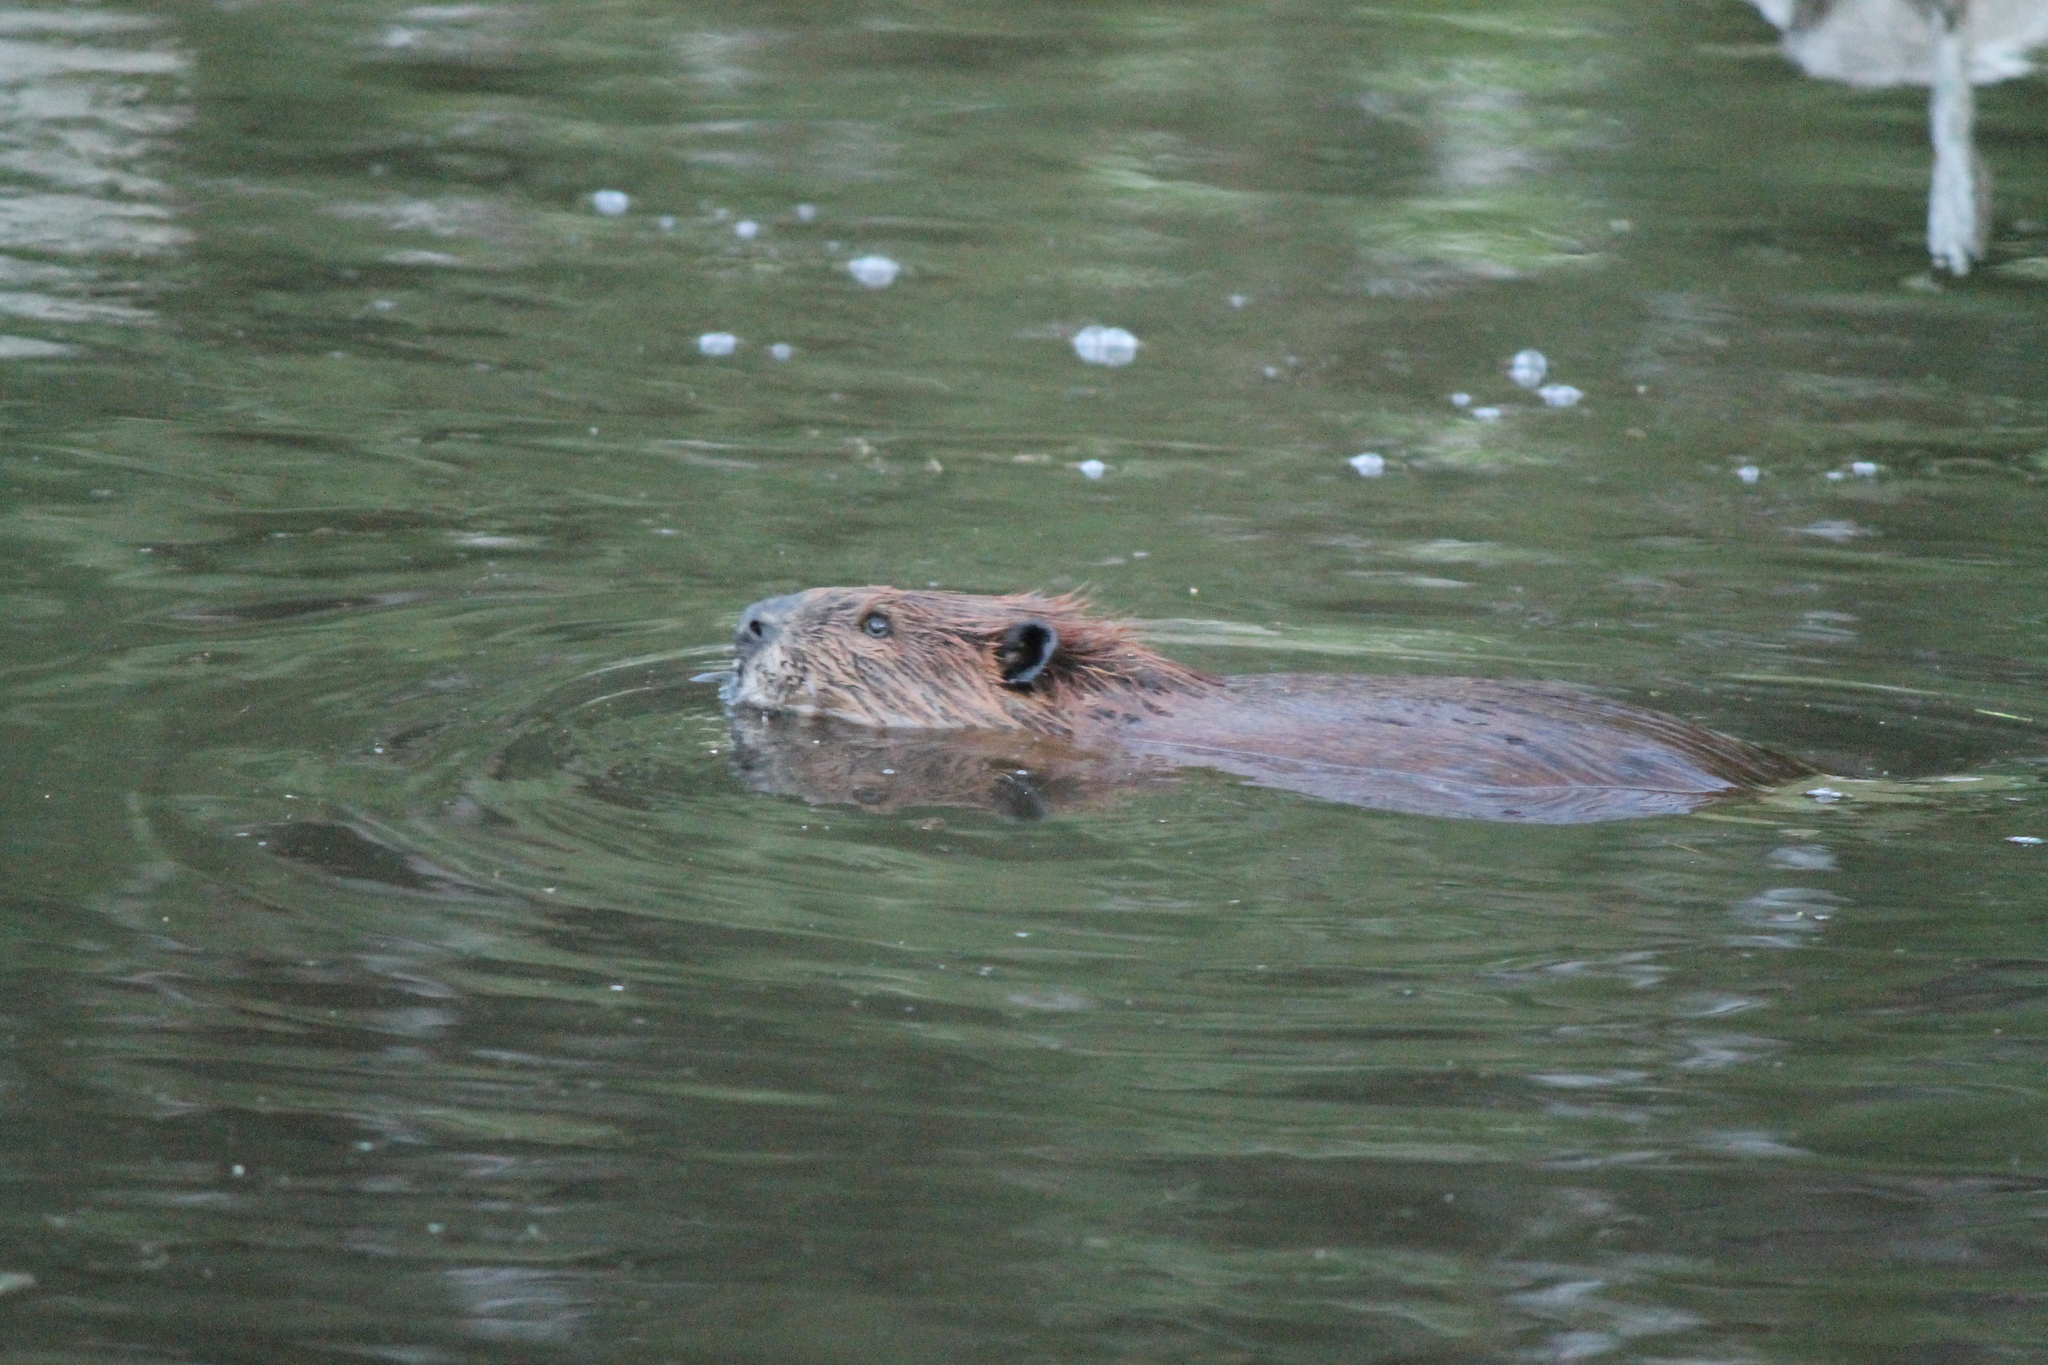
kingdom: Animalia
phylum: Chordata
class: Mammalia
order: Rodentia
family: Castoridae
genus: Castor
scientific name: Castor canadensis
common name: American beaver
